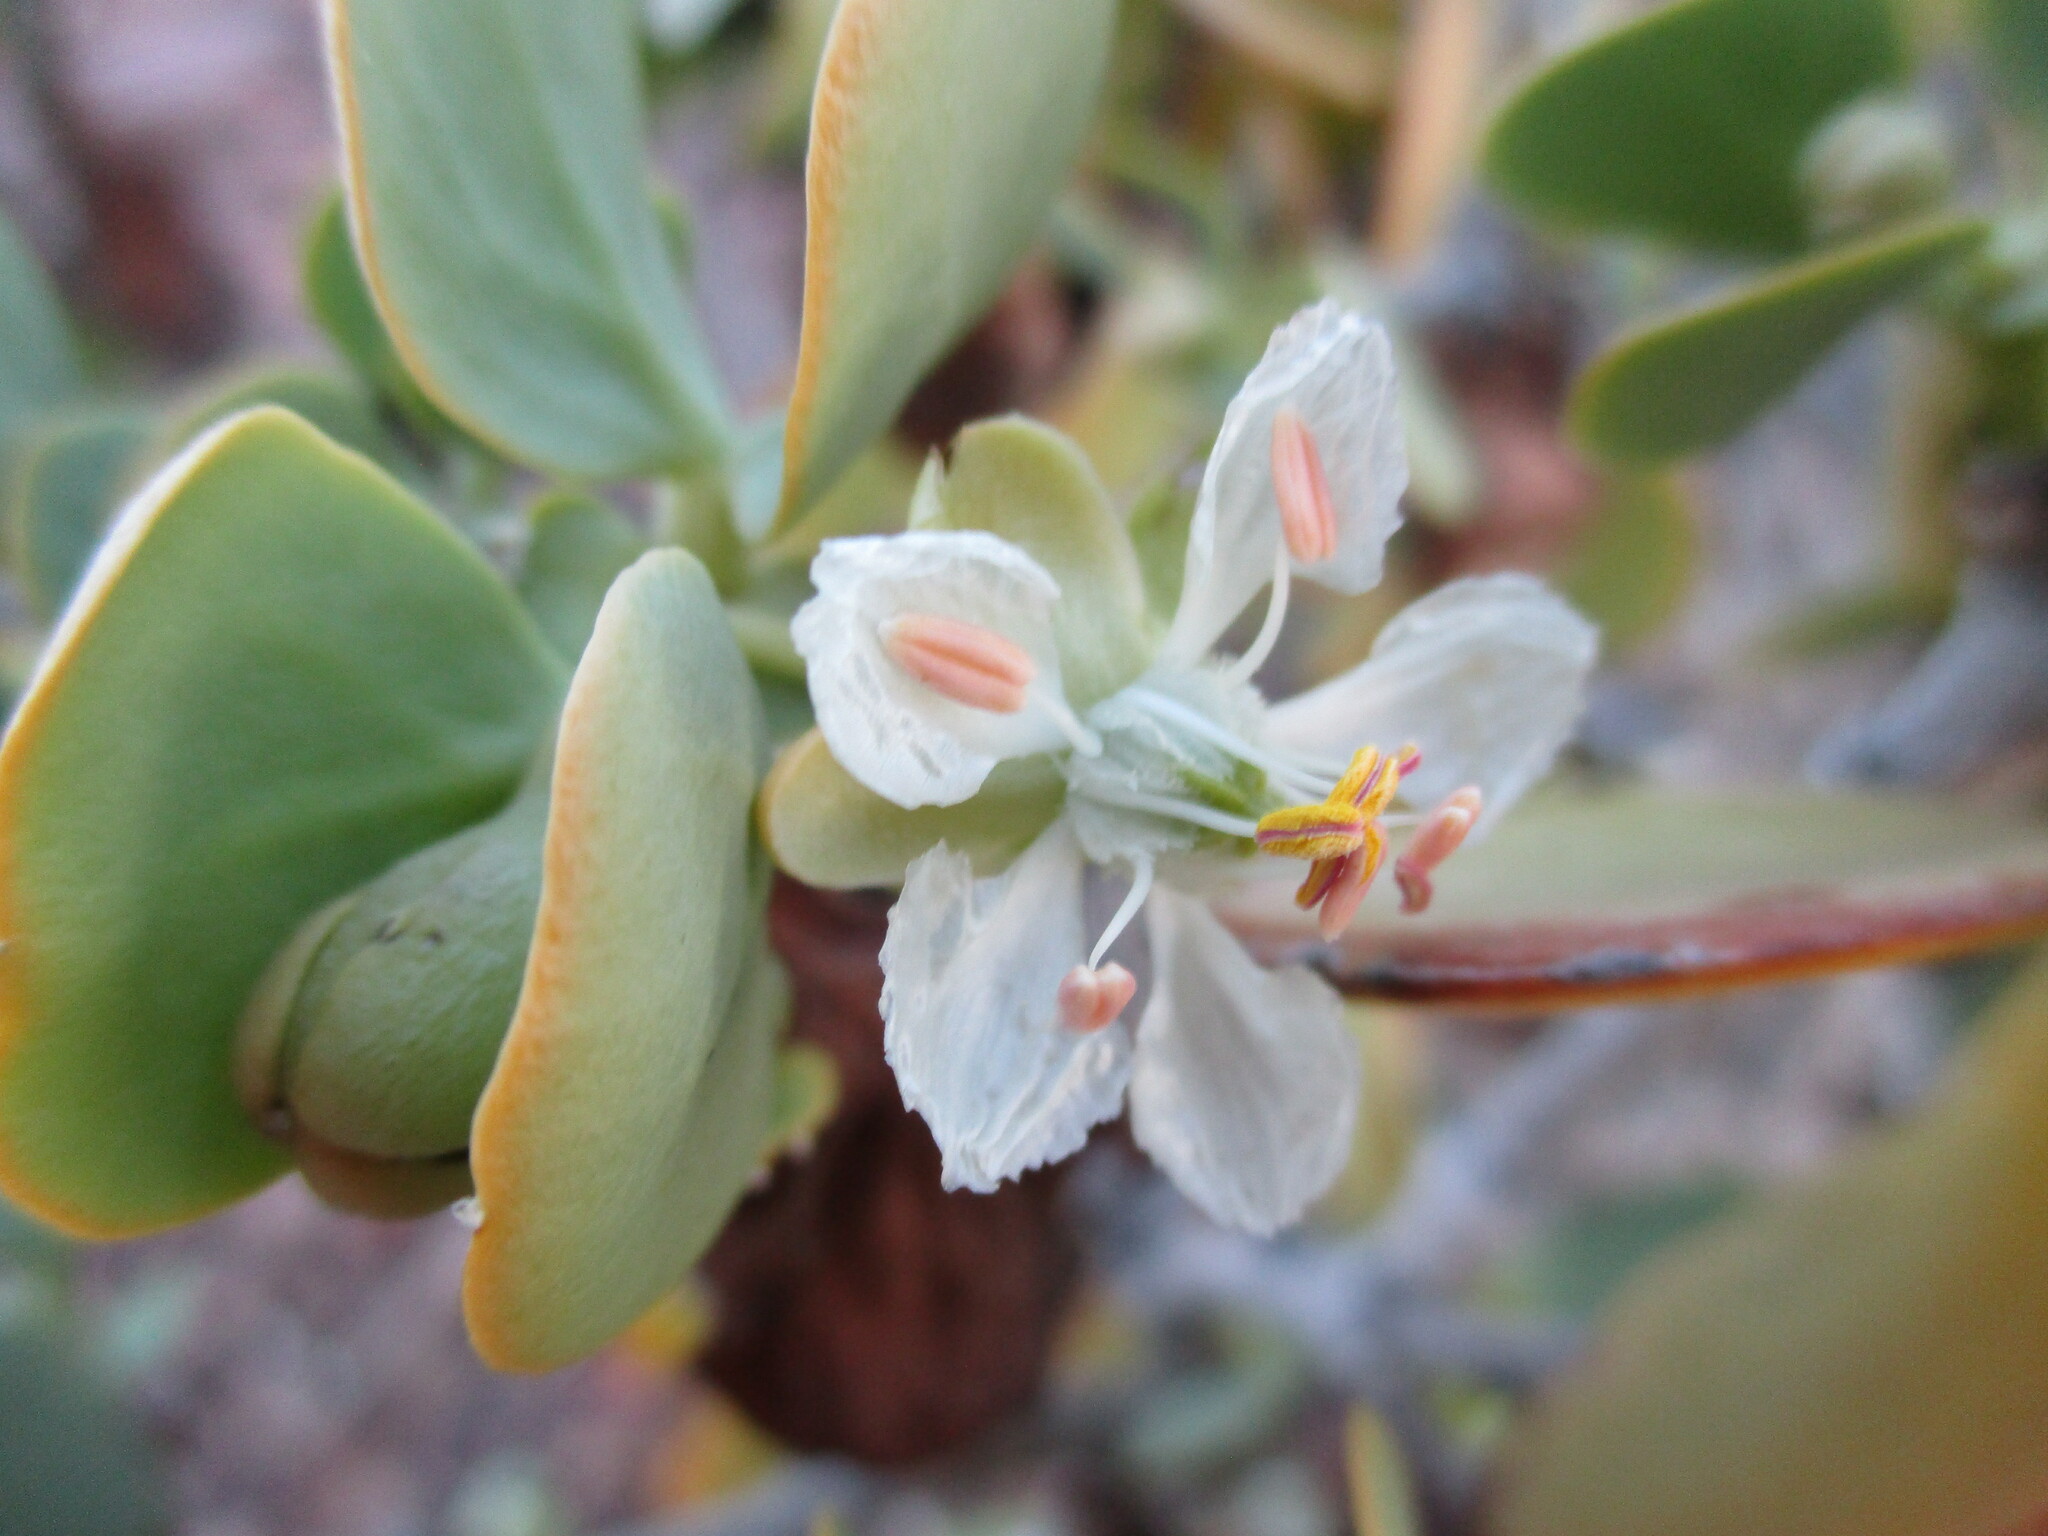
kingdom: Plantae
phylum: Tracheophyta
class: Magnoliopsida
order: Zygophyllales
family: Zygophyllaceae
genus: Tetraena
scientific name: Tetraena stapfii
